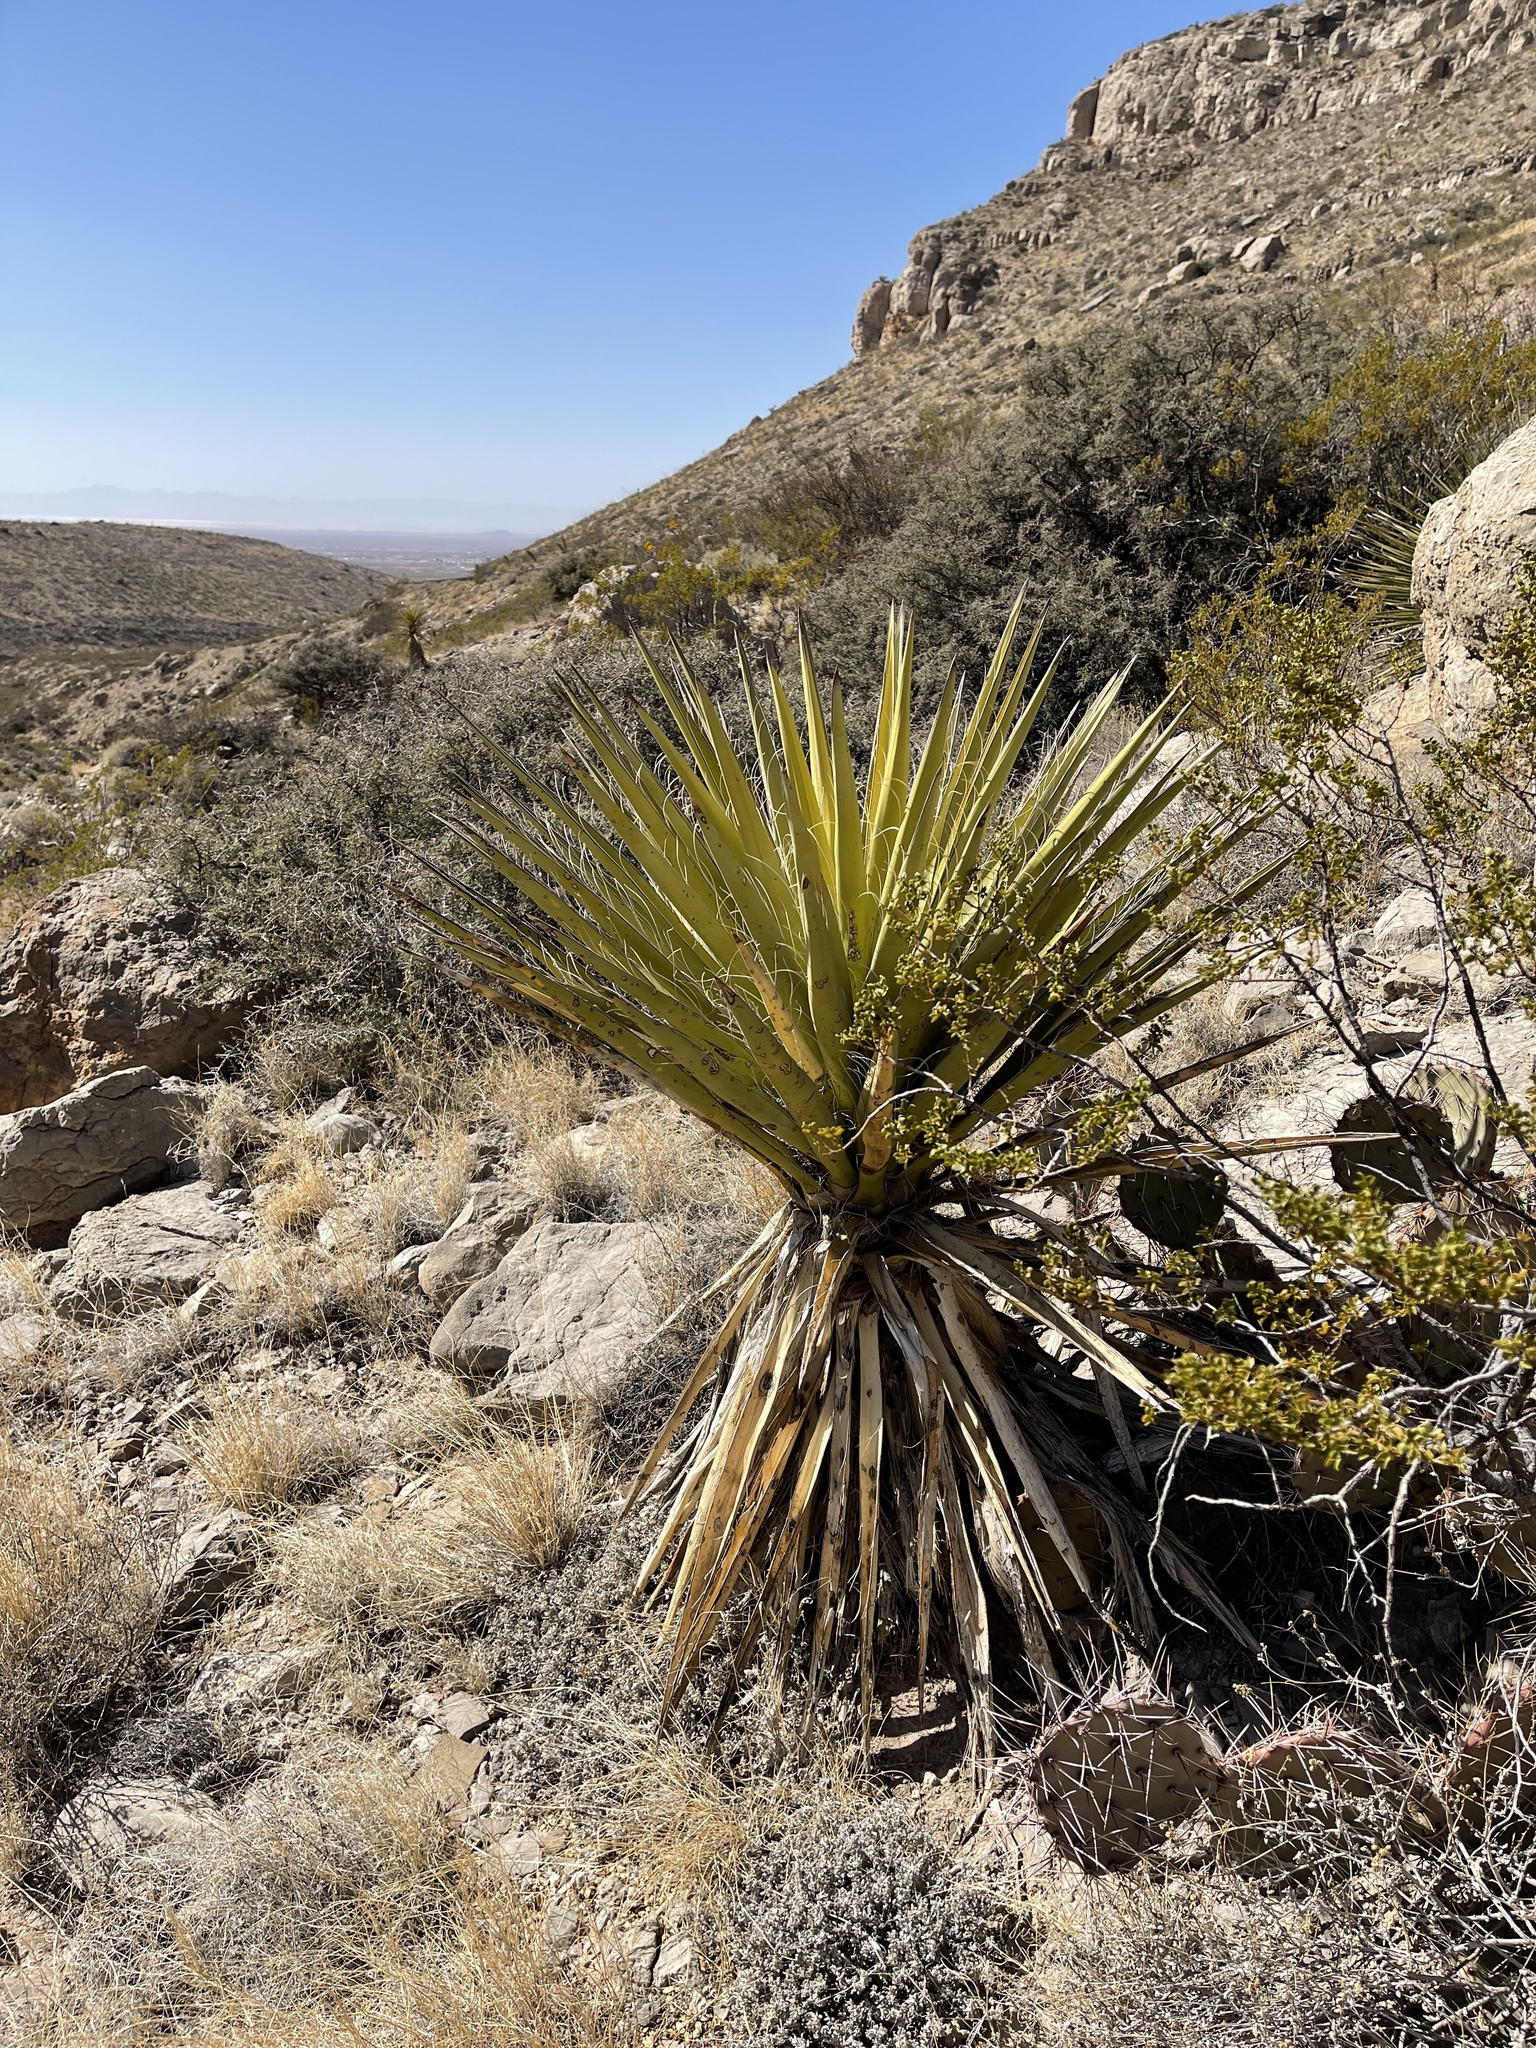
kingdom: Plantae
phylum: Tracheophyta
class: Liliopsida
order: Asparagales
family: Asparagaceae
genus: Yucca
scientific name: Yucca treculiana
